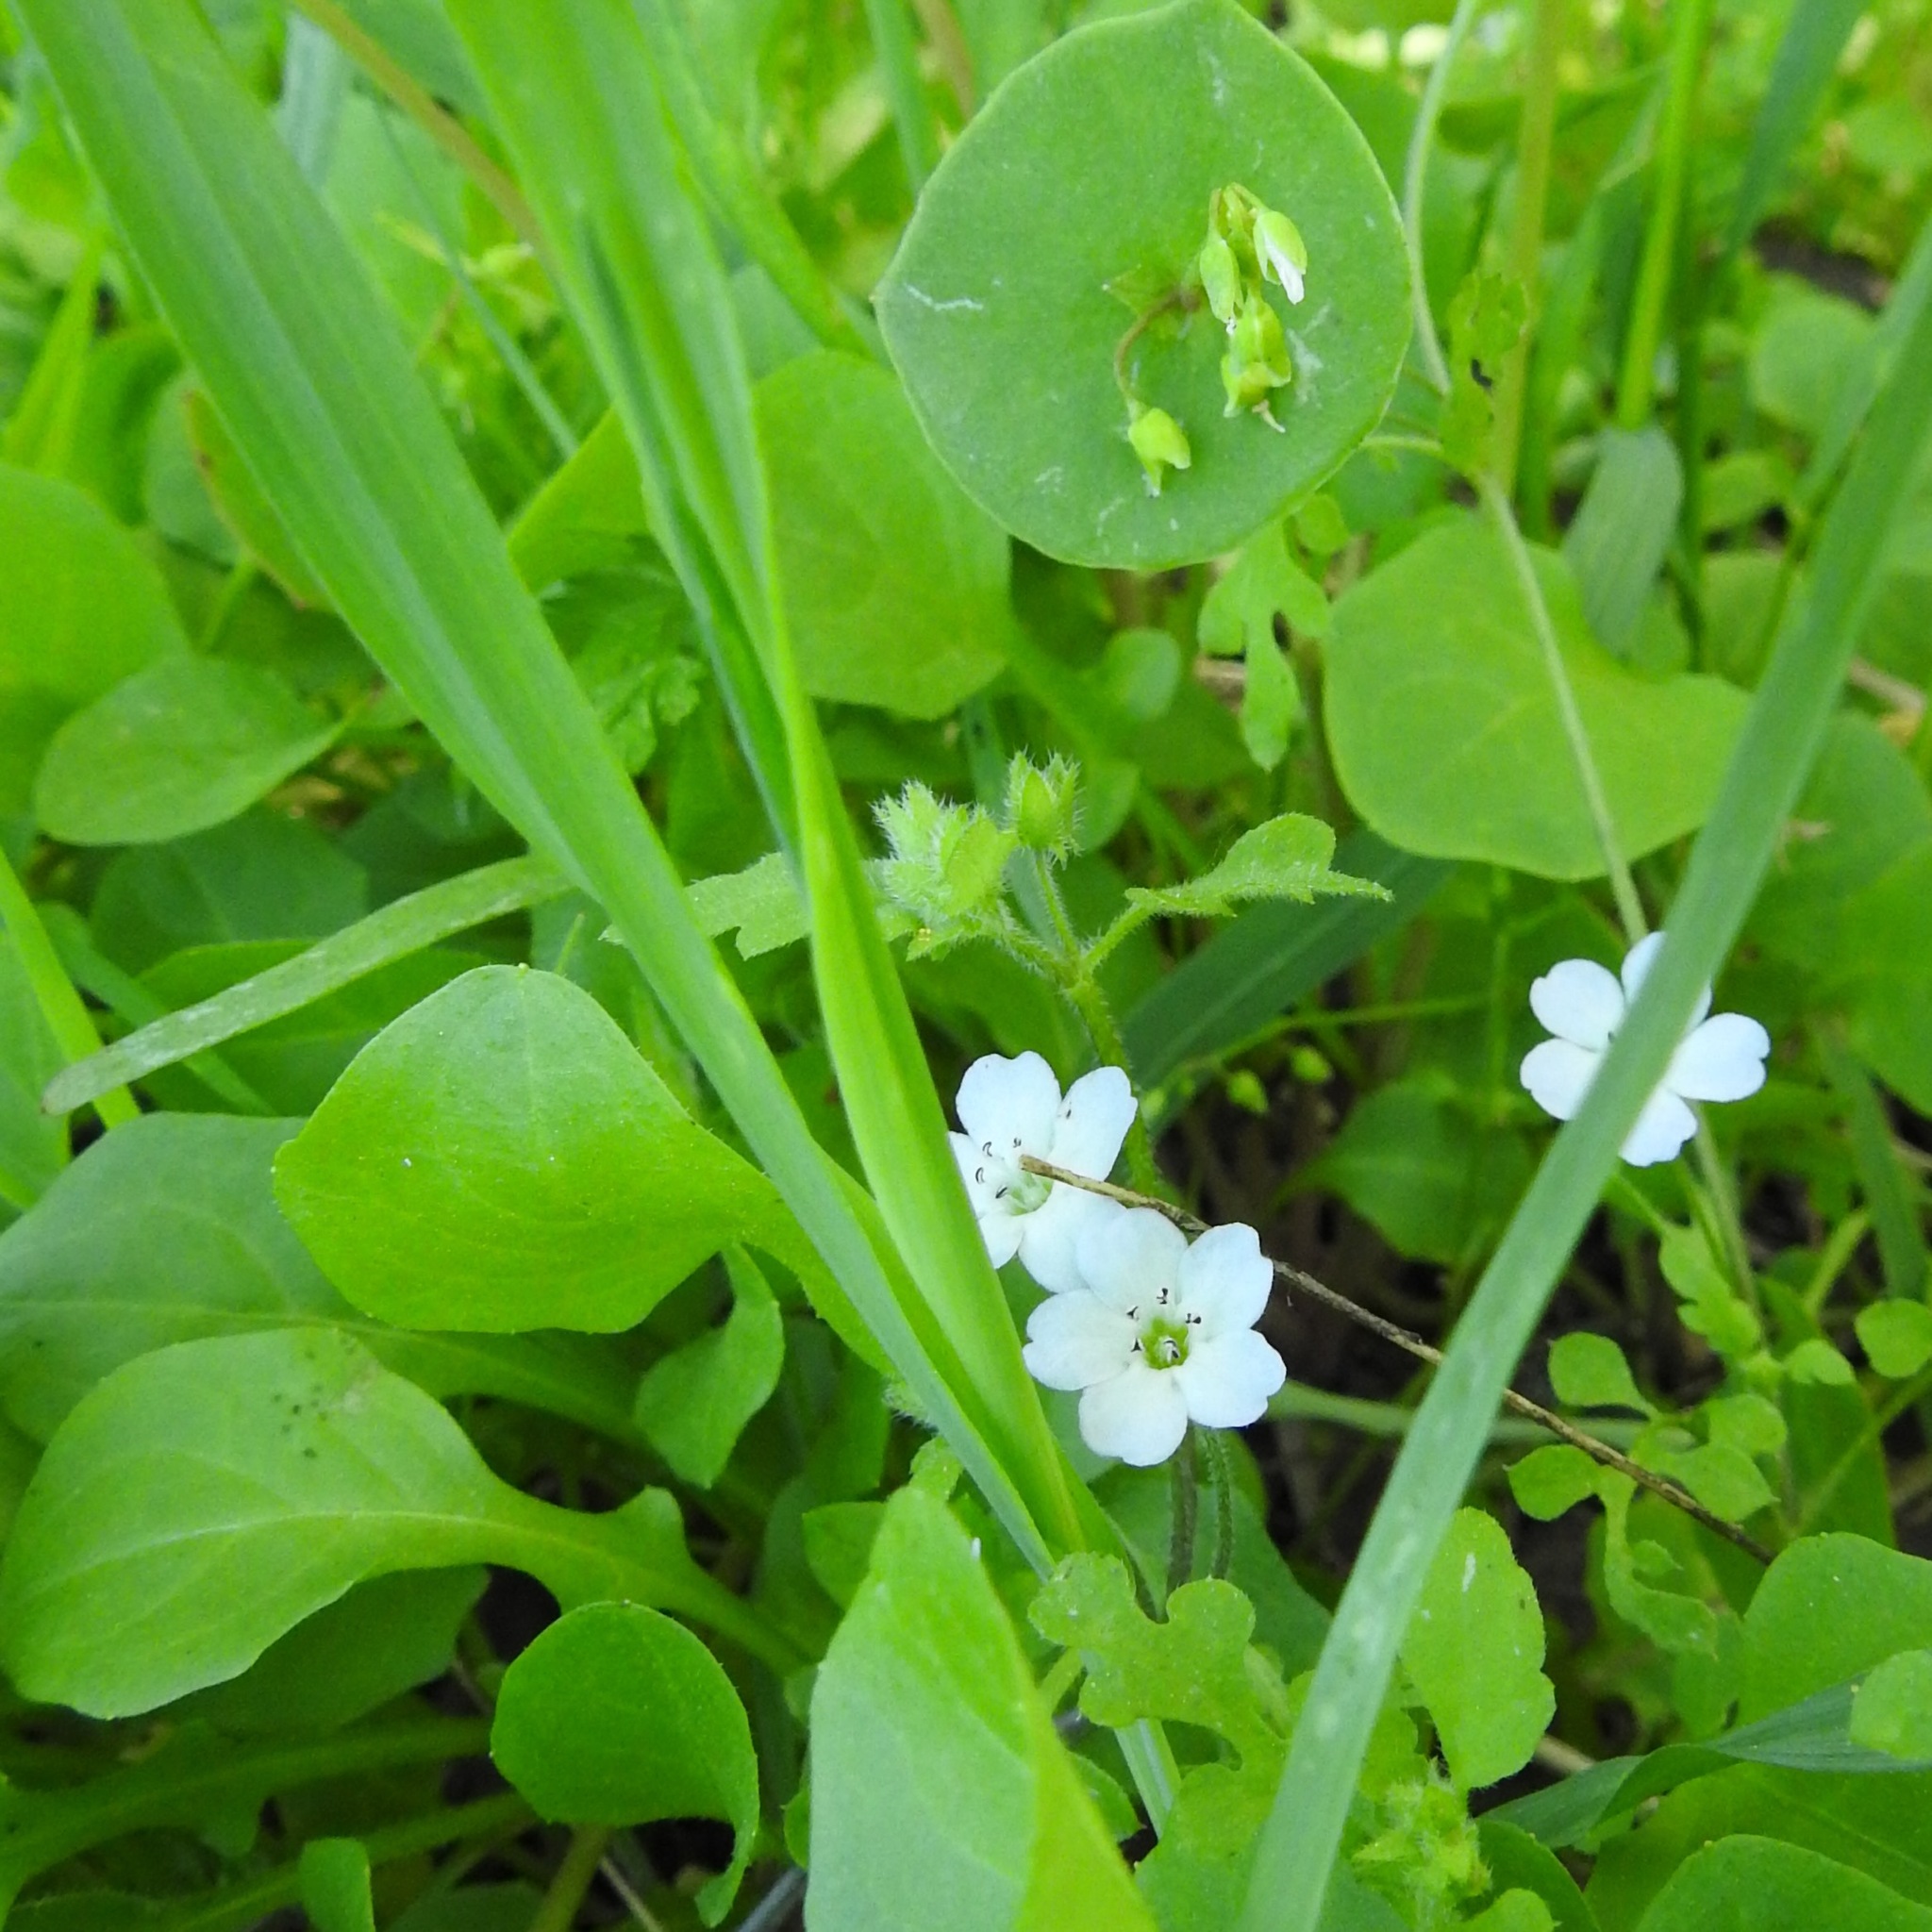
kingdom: Plantae
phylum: Tracheophyta
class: Magnoliopsida
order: Boraginales
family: Hydrophyllaceae
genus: Nemophila
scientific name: Nemophila heterophylla
